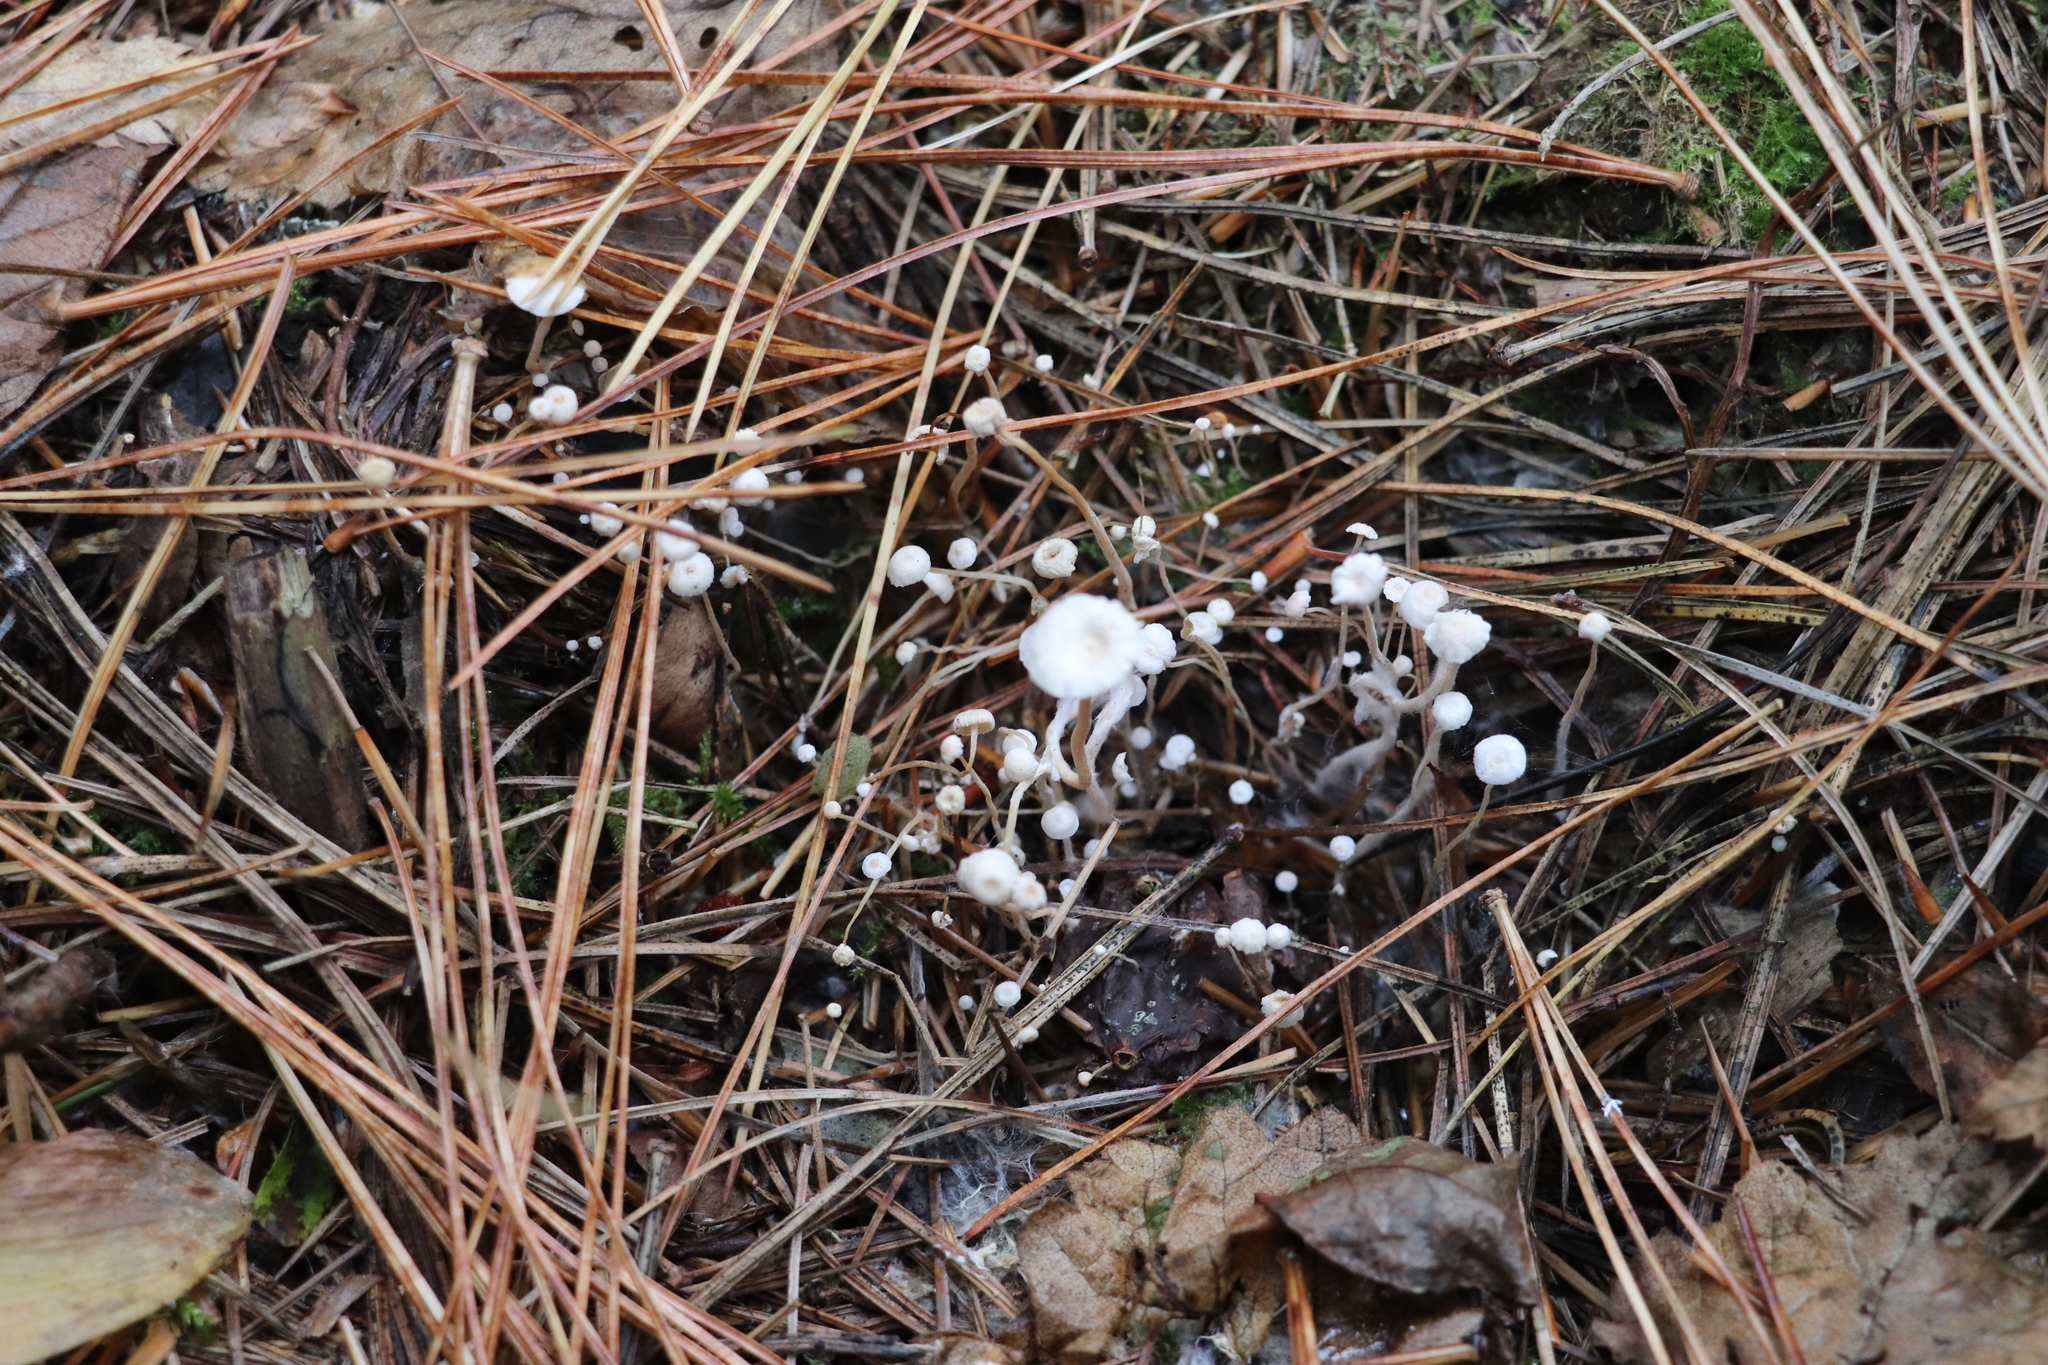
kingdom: Fungi
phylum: Basidiomycota
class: Agaricomycetes
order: Agaricales
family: Tricholomataceae
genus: Collybia
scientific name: Collybia tuberosa
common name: Lentil shanklet
